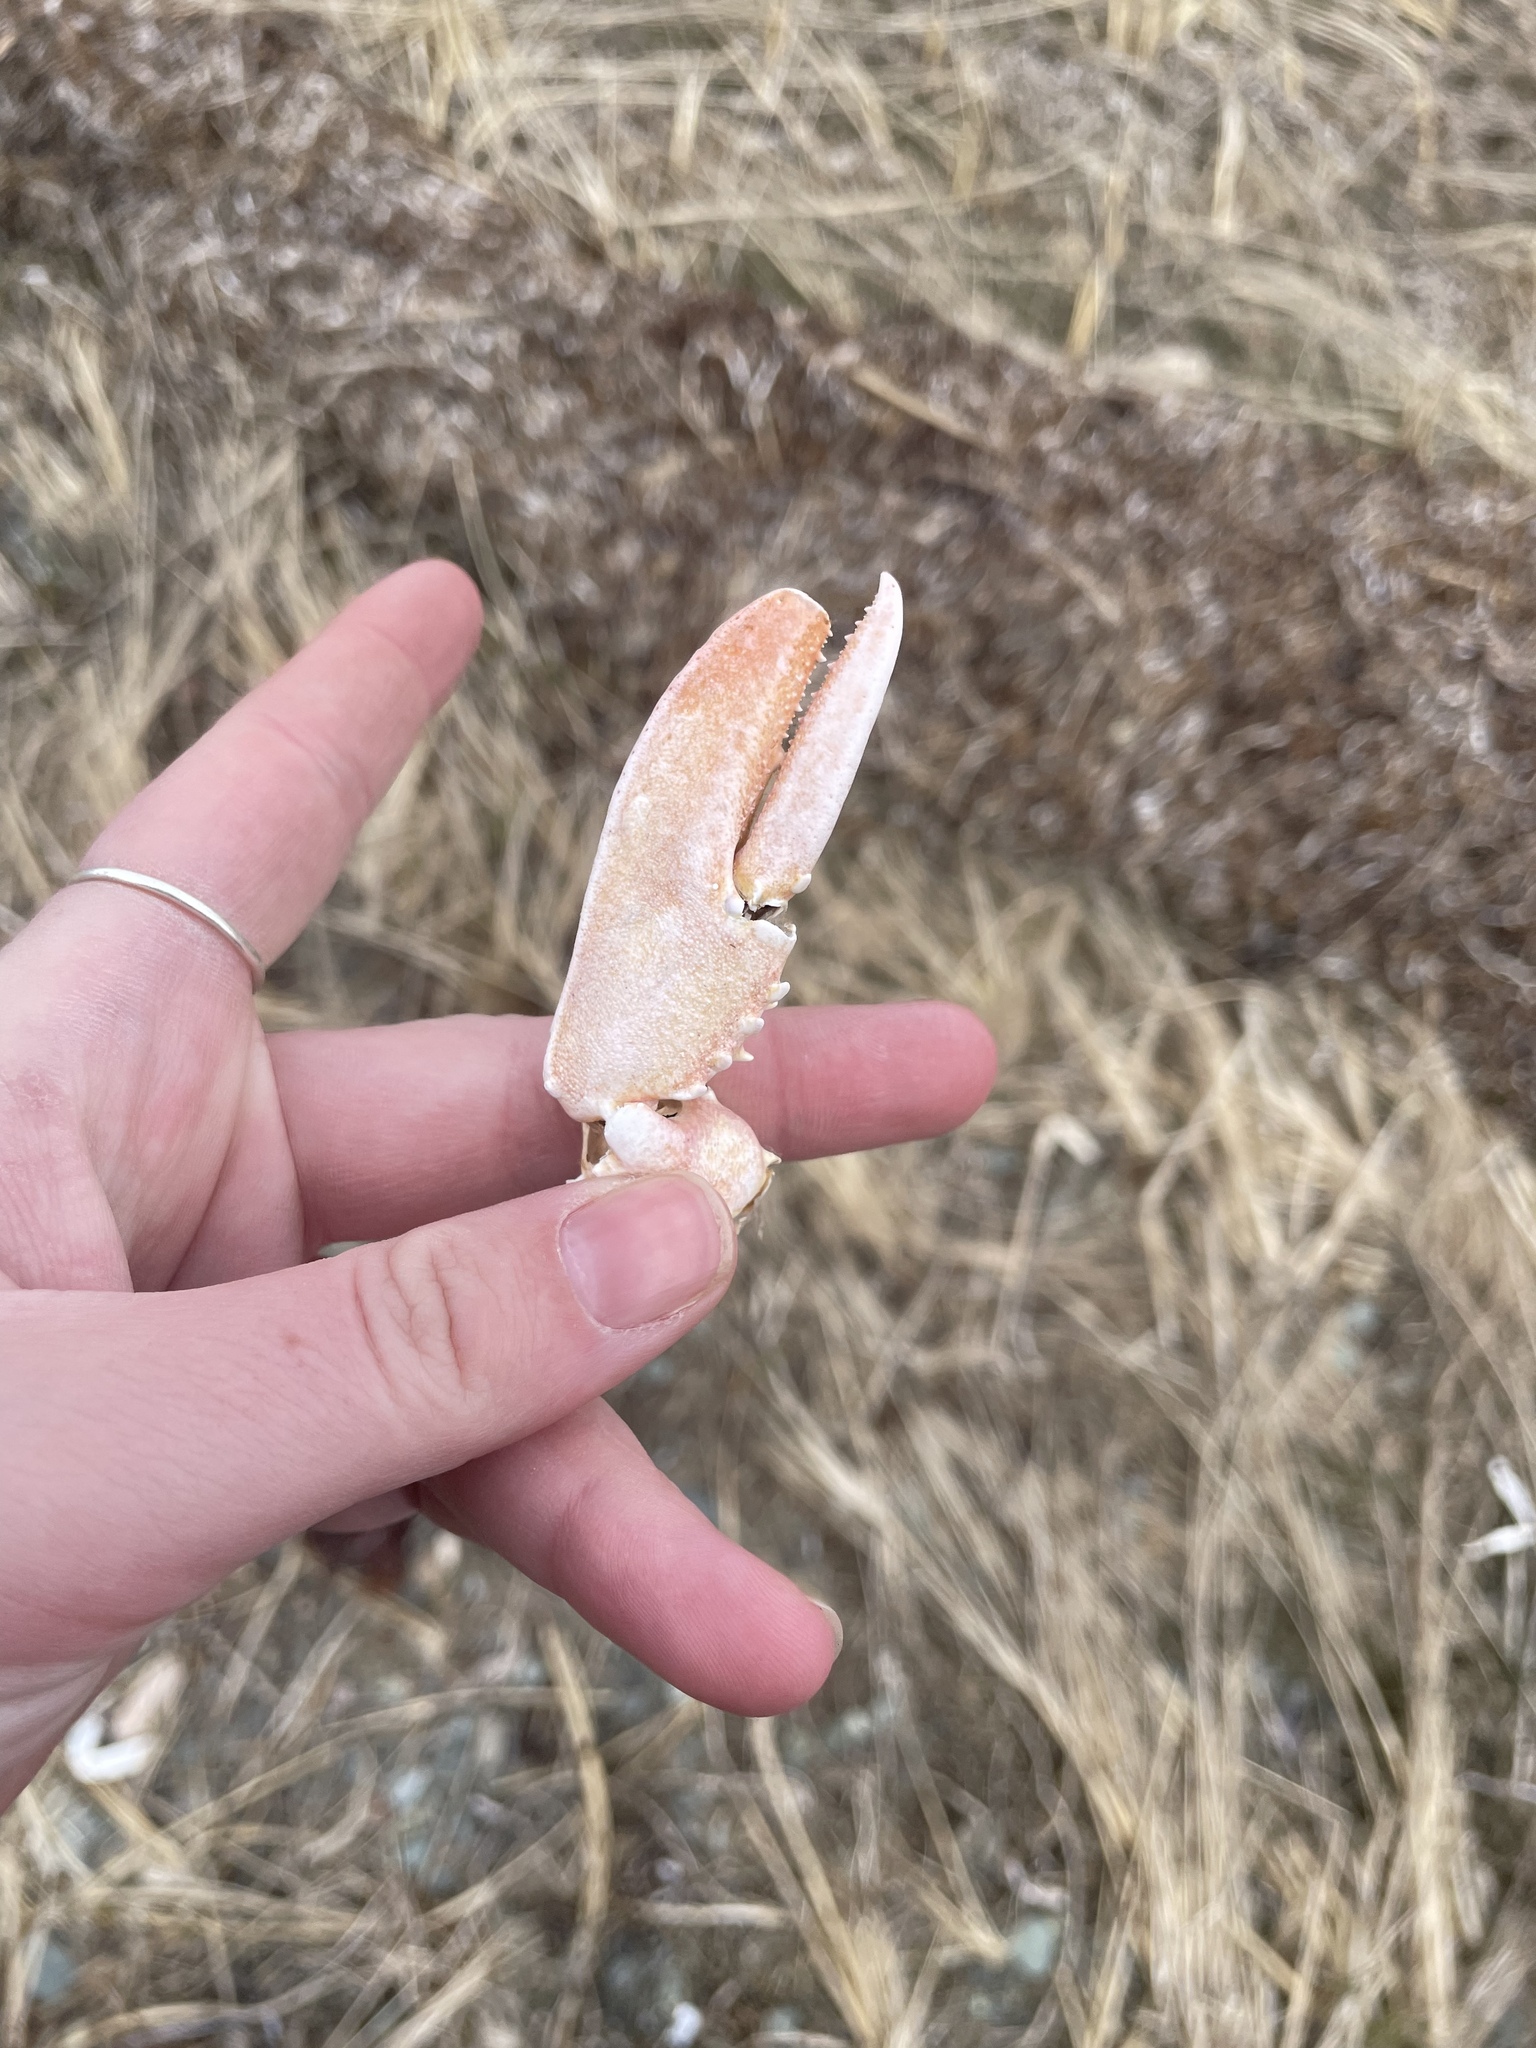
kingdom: Animalia
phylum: Arthropoda
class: Malacostraca
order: Decapoda
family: Nephropidae
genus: Homarus
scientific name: Homarus americanus
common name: American lobster
